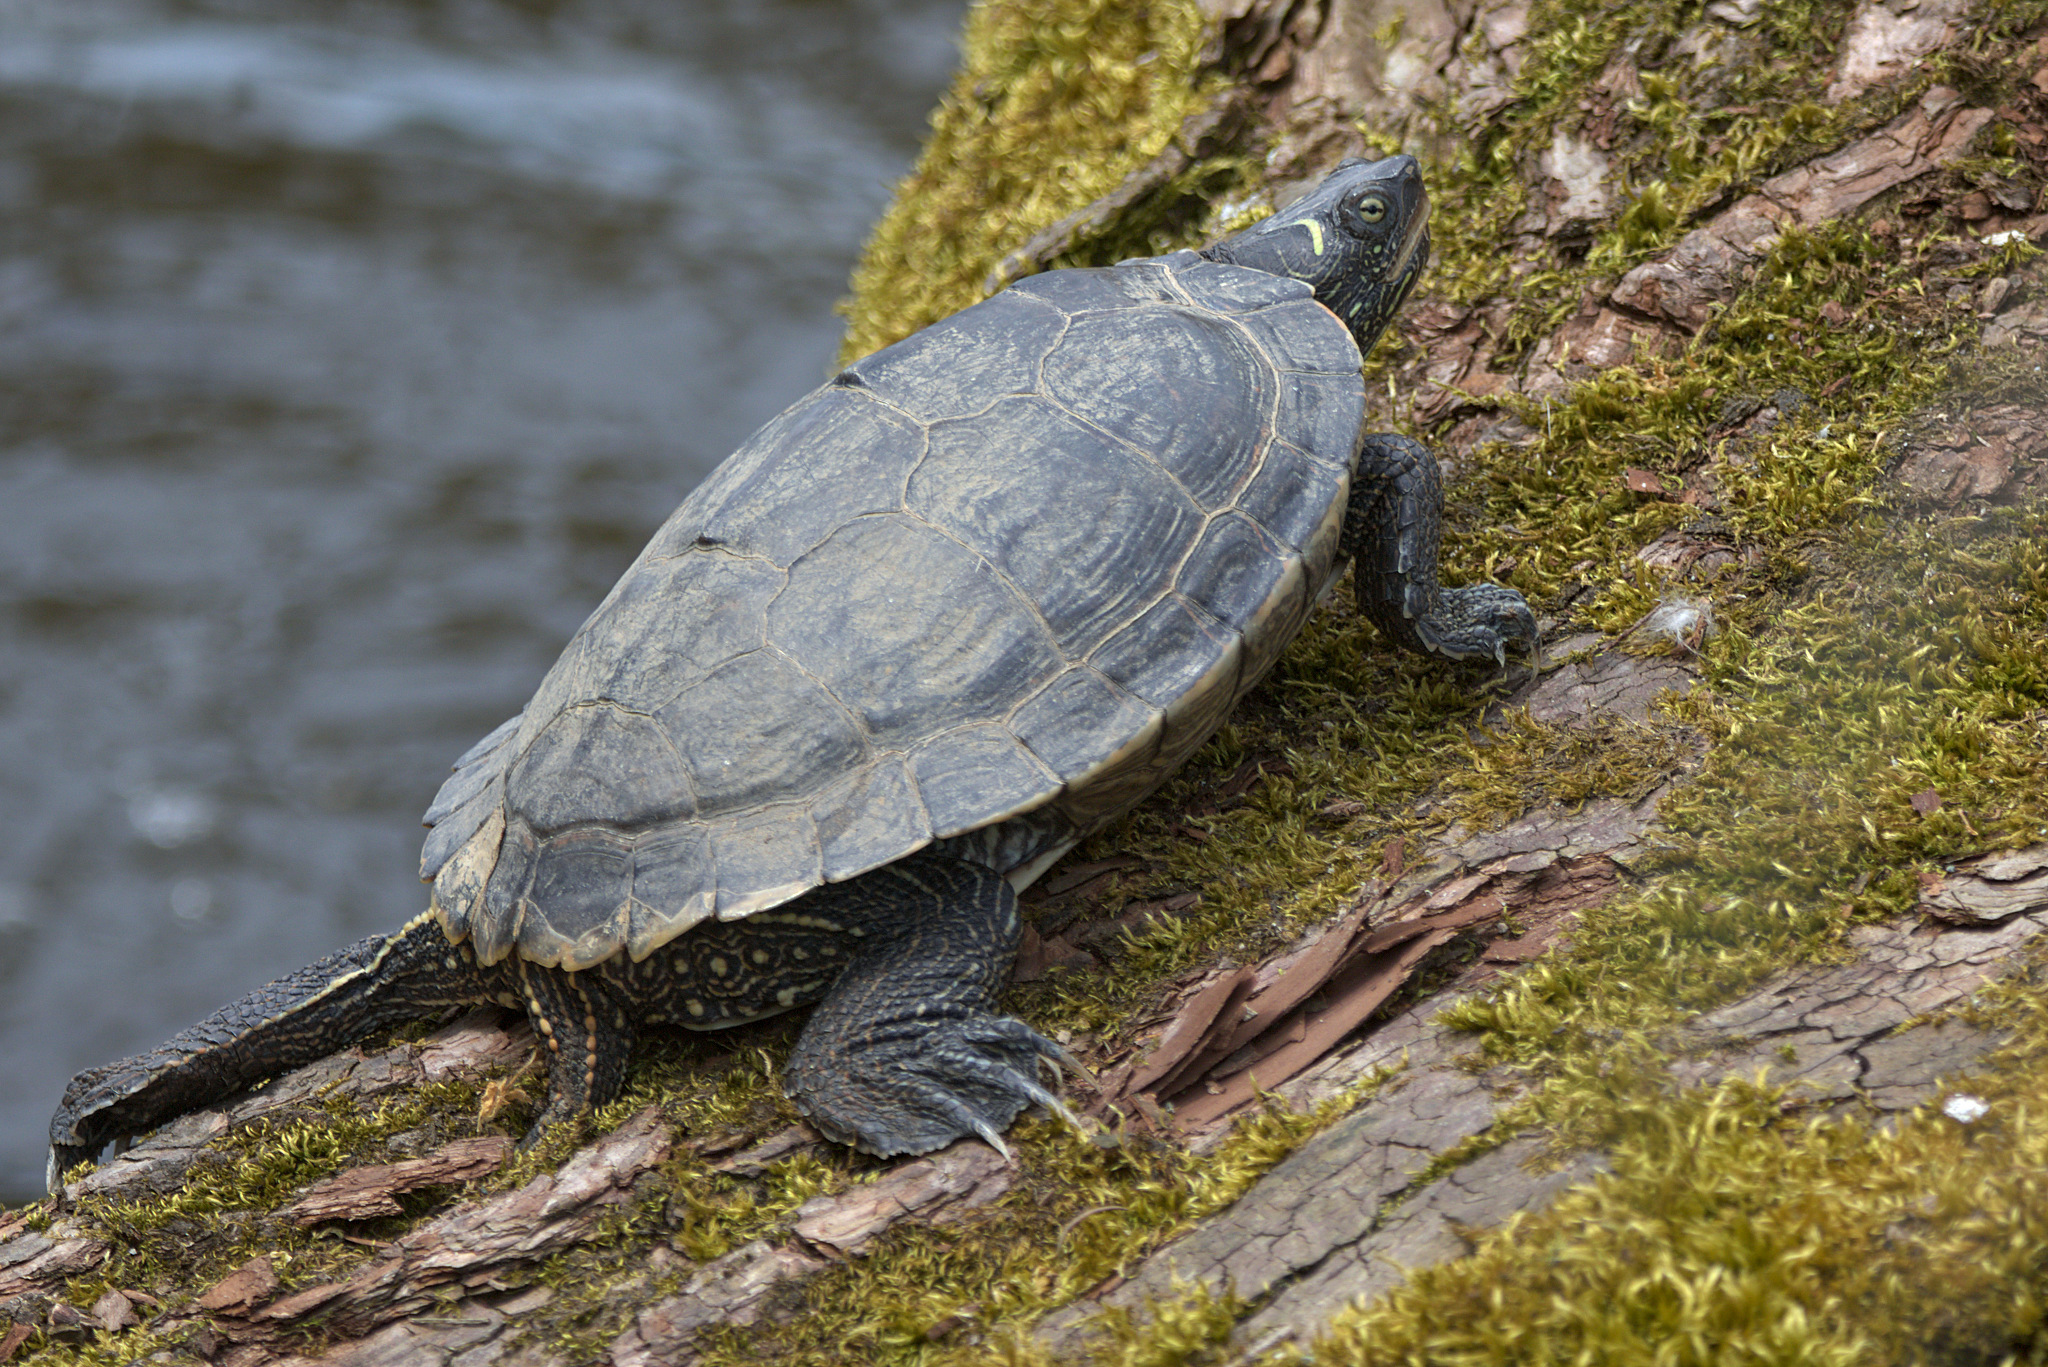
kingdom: Animalia
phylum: Chordata
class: Testudines
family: Emydidae
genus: Graptemys
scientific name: Graptemys pseudogeographica
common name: False map turtle
